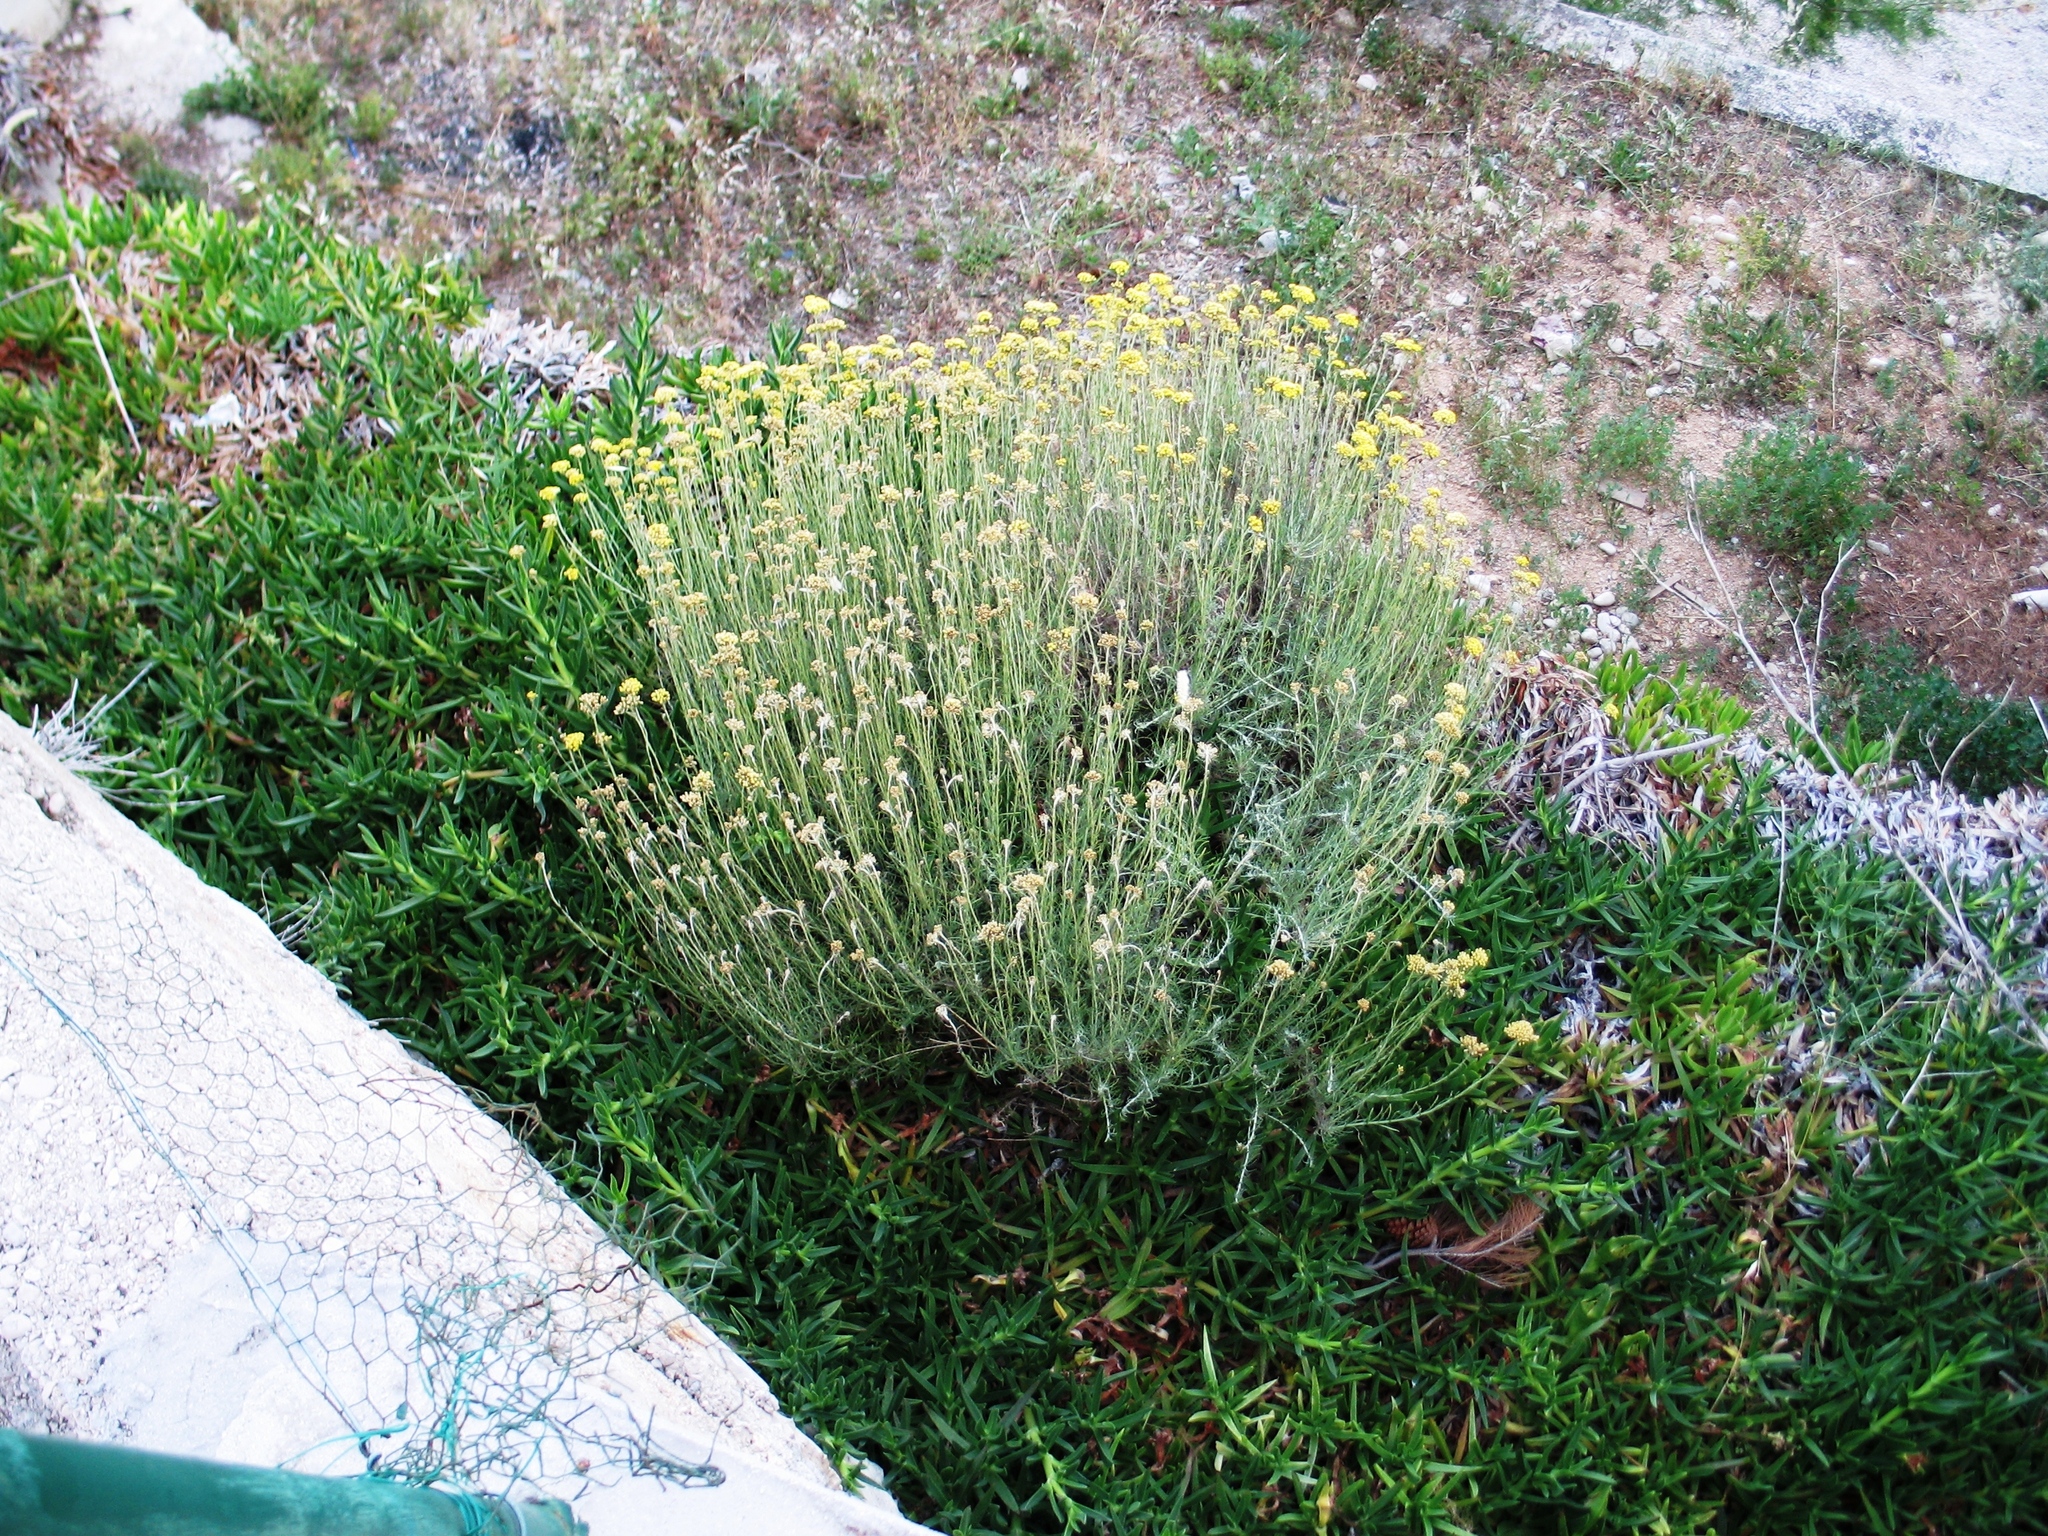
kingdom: Plantae
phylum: Tracheophyta
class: Magnoliopsida
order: Asterales
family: Asteraceae
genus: Helichrysum
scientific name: Helichrysum italicum
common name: Curryplant
